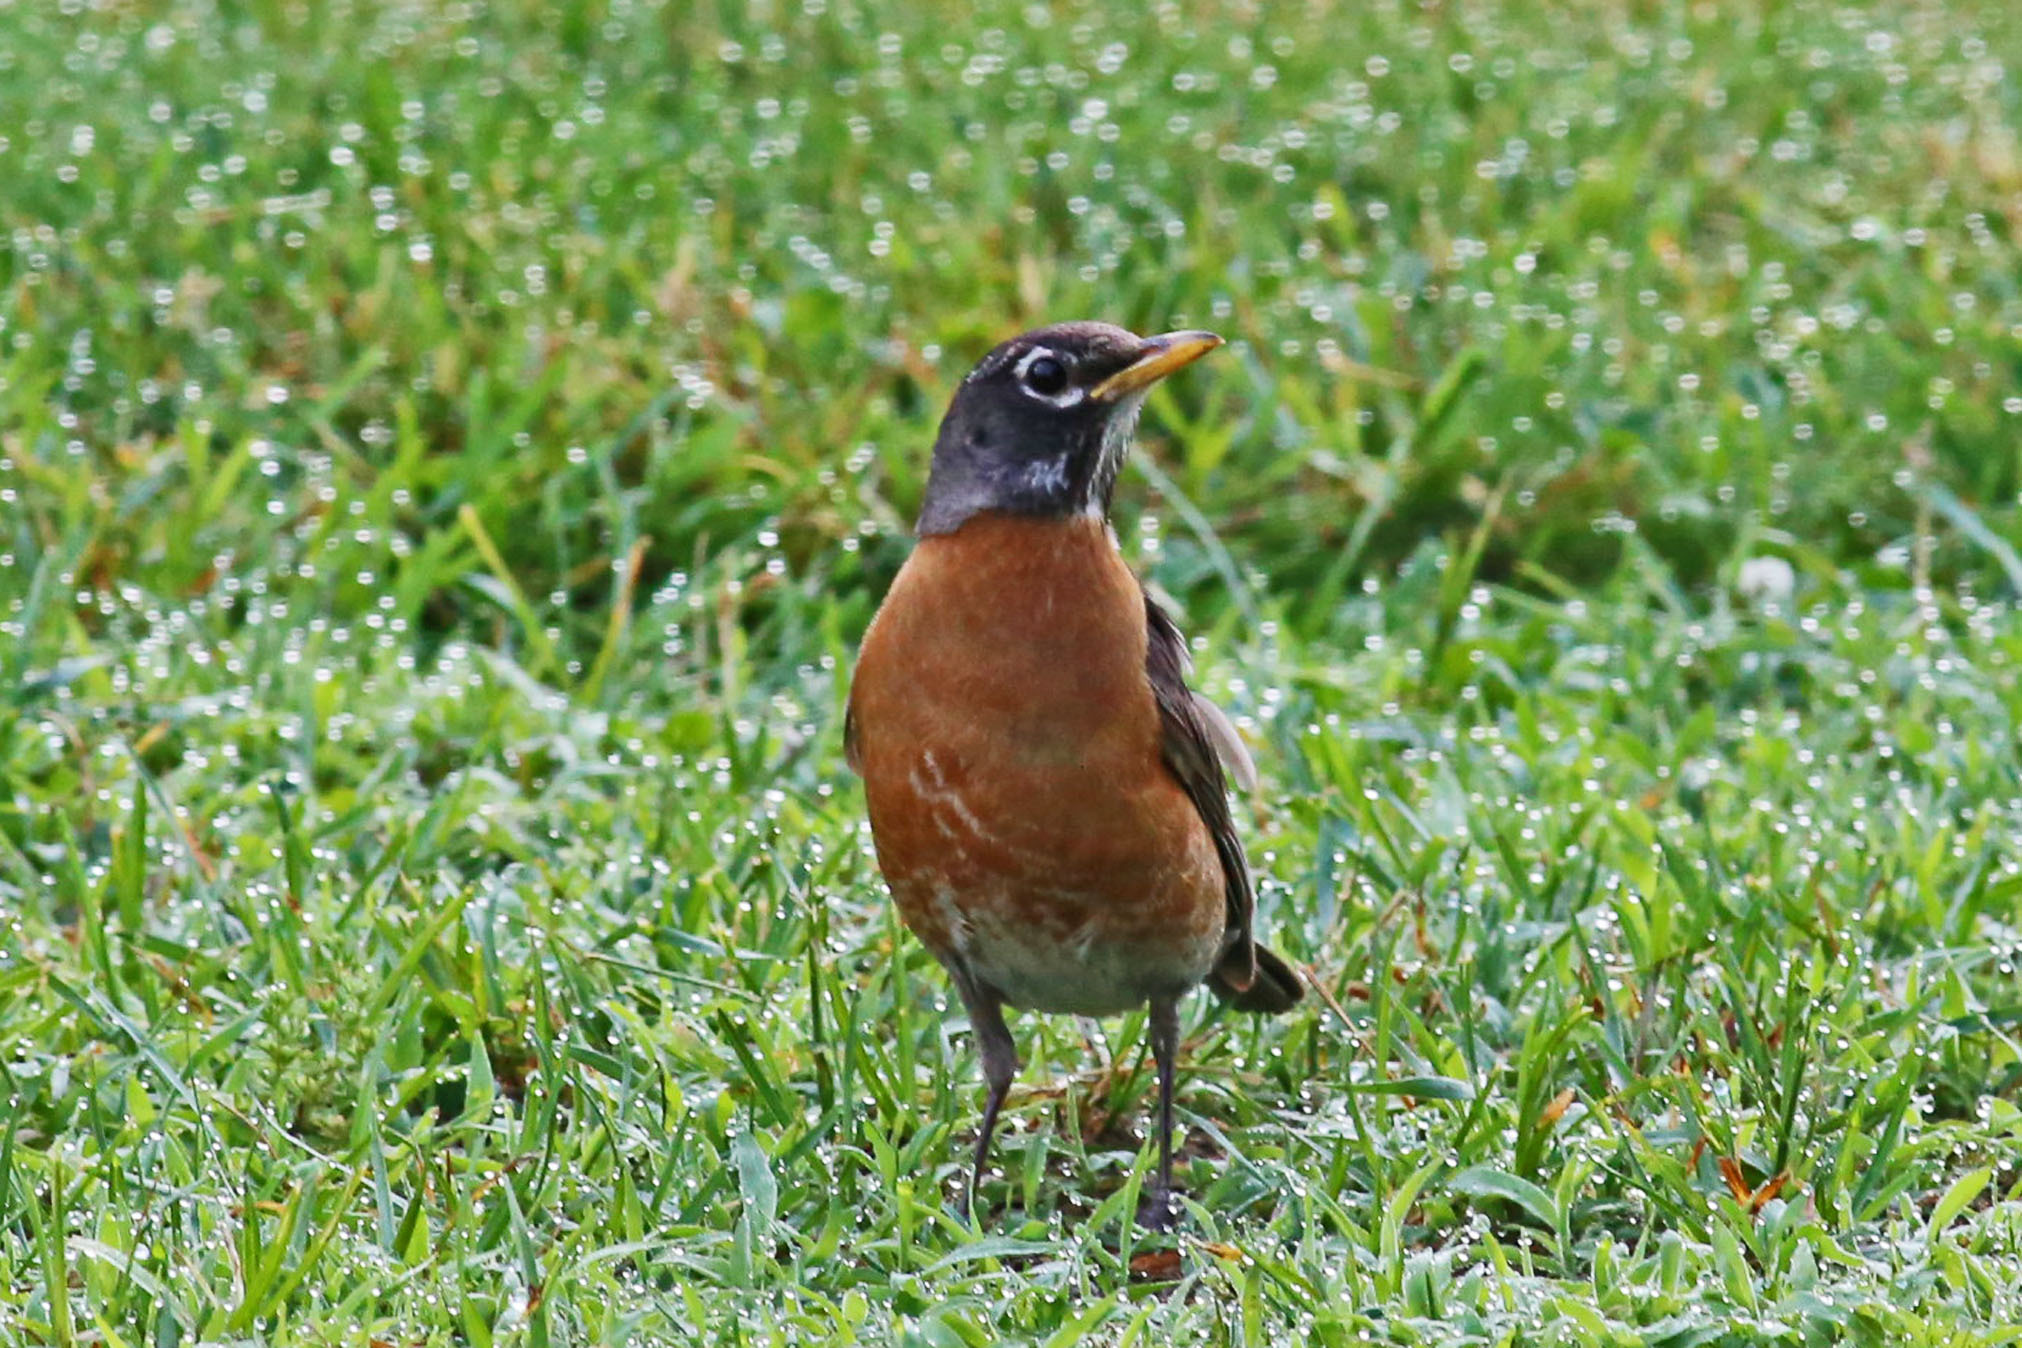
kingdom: Animalia
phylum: Chordata
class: Aves
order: Passeriformes
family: Turdidae
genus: Turdus
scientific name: Turdus migratorius
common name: American robin
